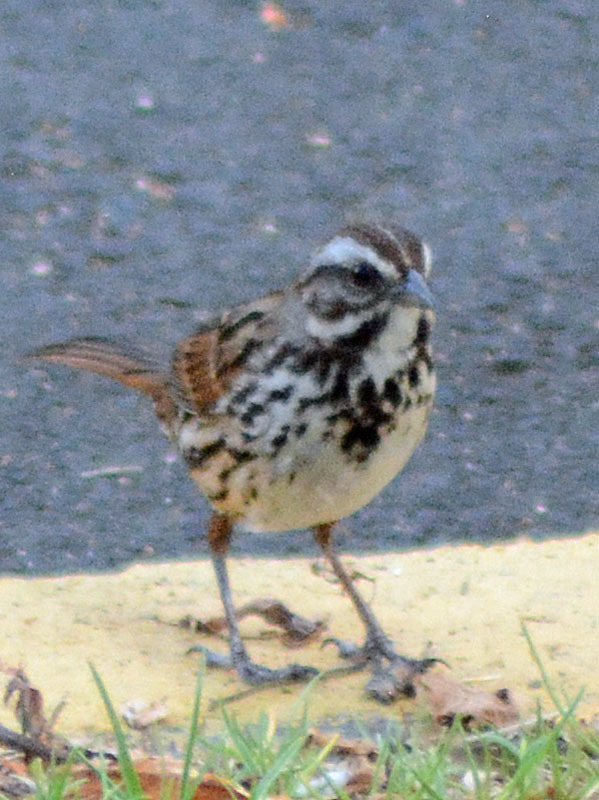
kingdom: Animalia
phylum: Chordata
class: Aves
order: Passeriformes
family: Passerellidae
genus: Melospiza
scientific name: Melospiza melodia
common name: Song sparrow
